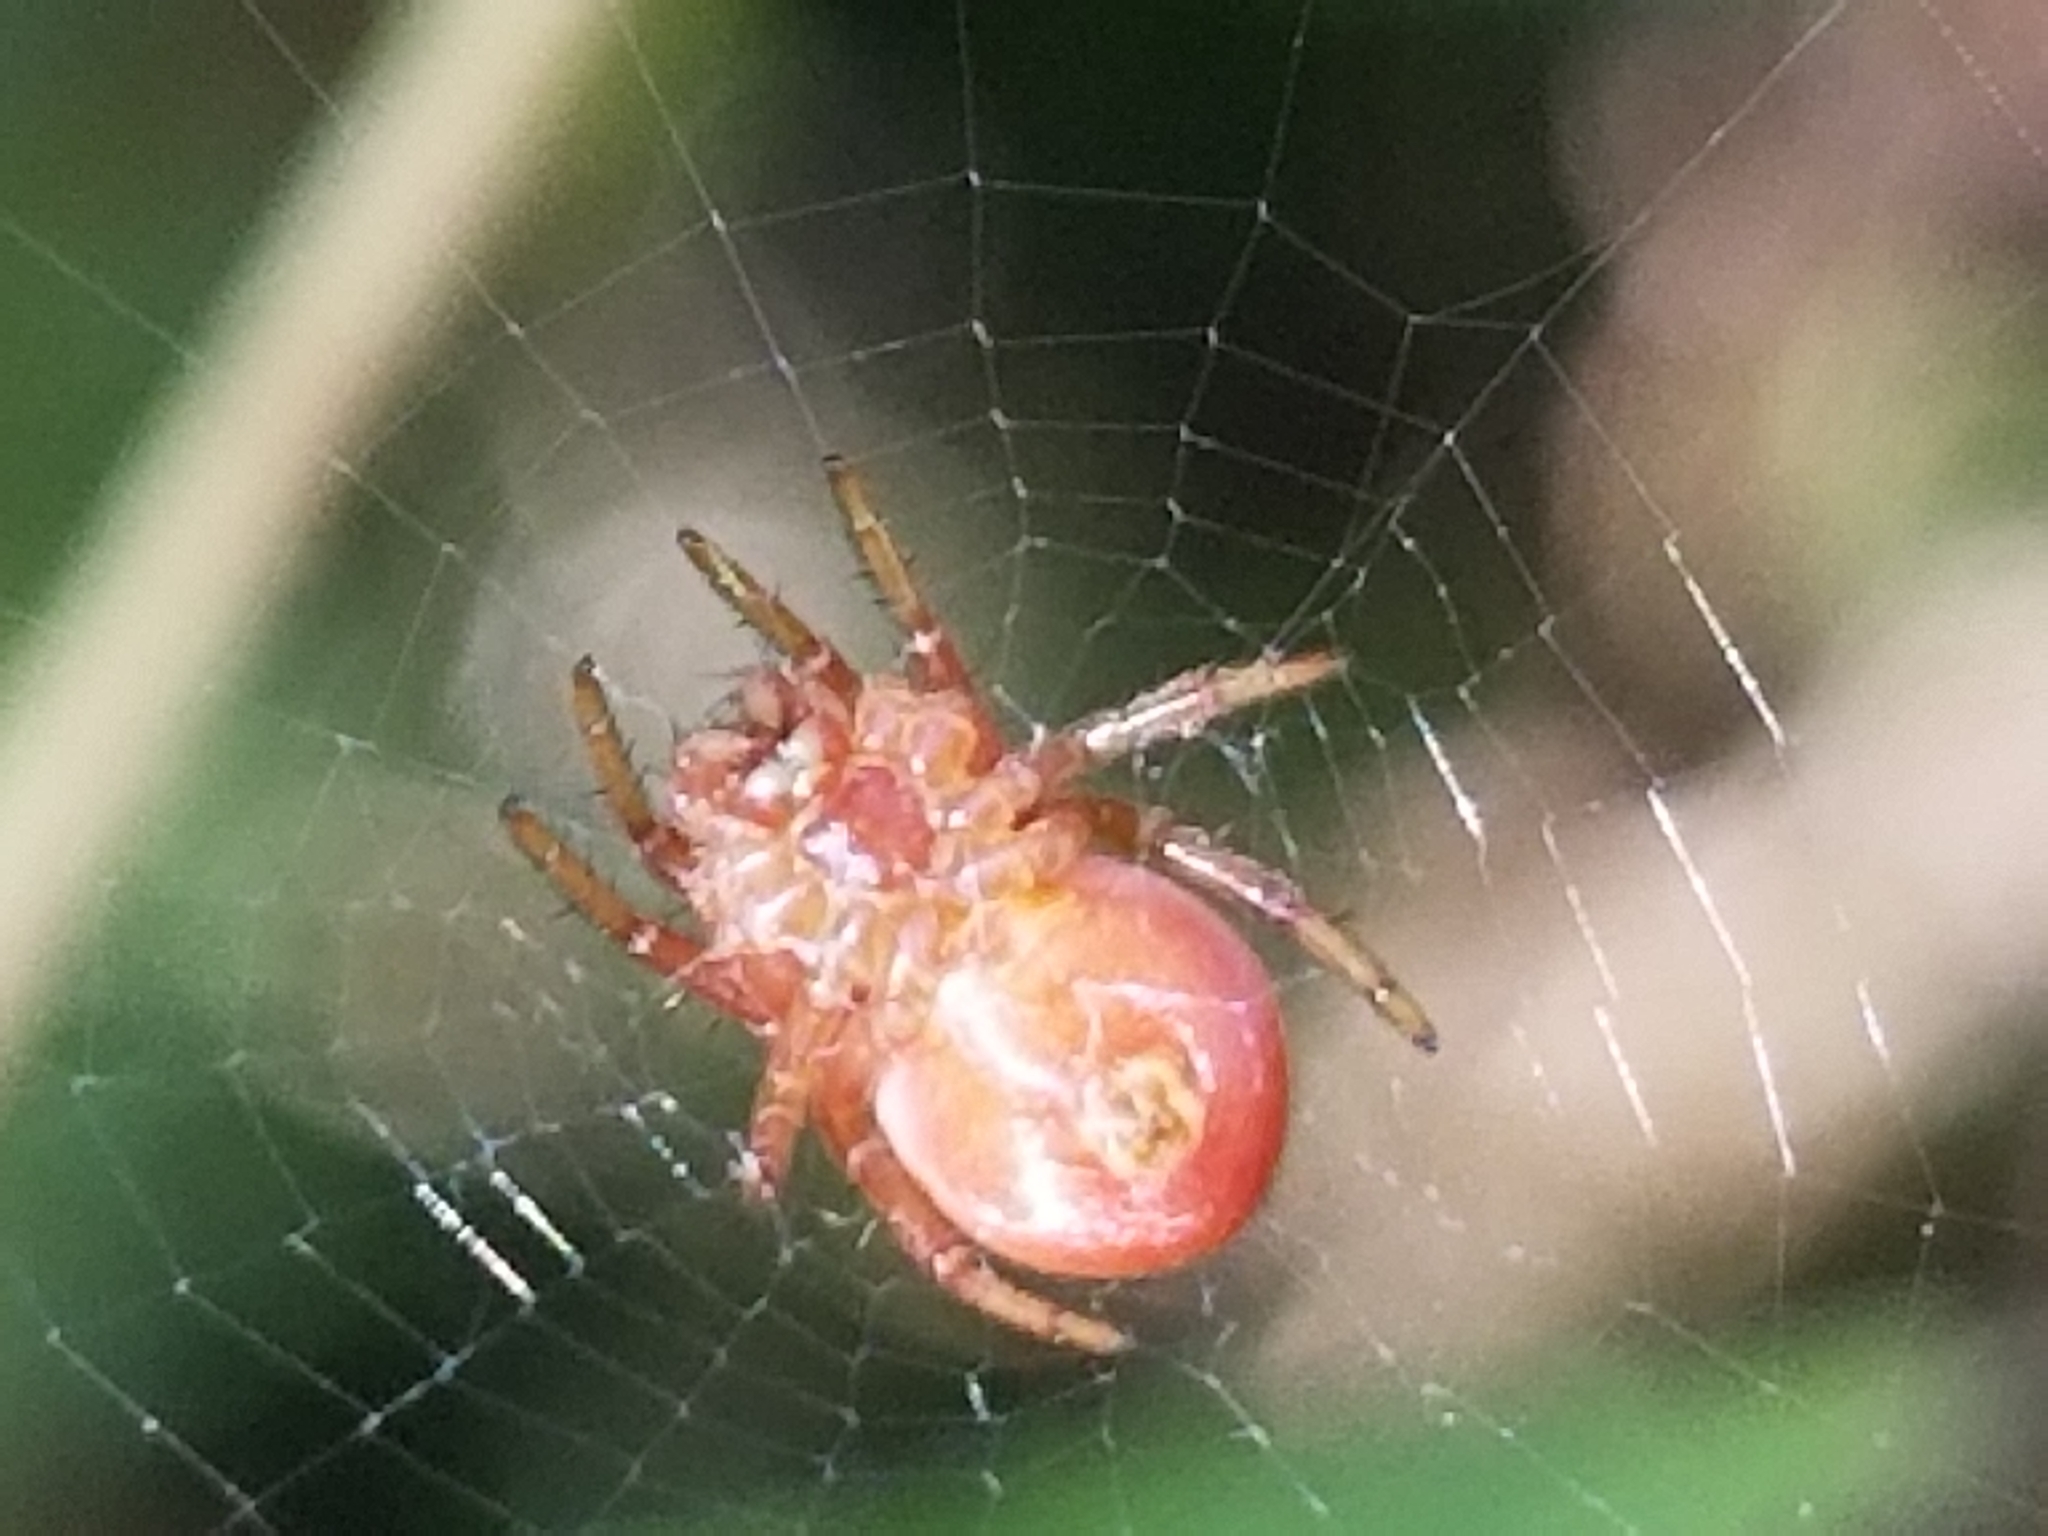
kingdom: Animalia
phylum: Arthropoda
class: Arachnida
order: Araneae
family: Araneidae
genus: Araniella
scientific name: Araniella displicata
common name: Sixspotted orb weaver
